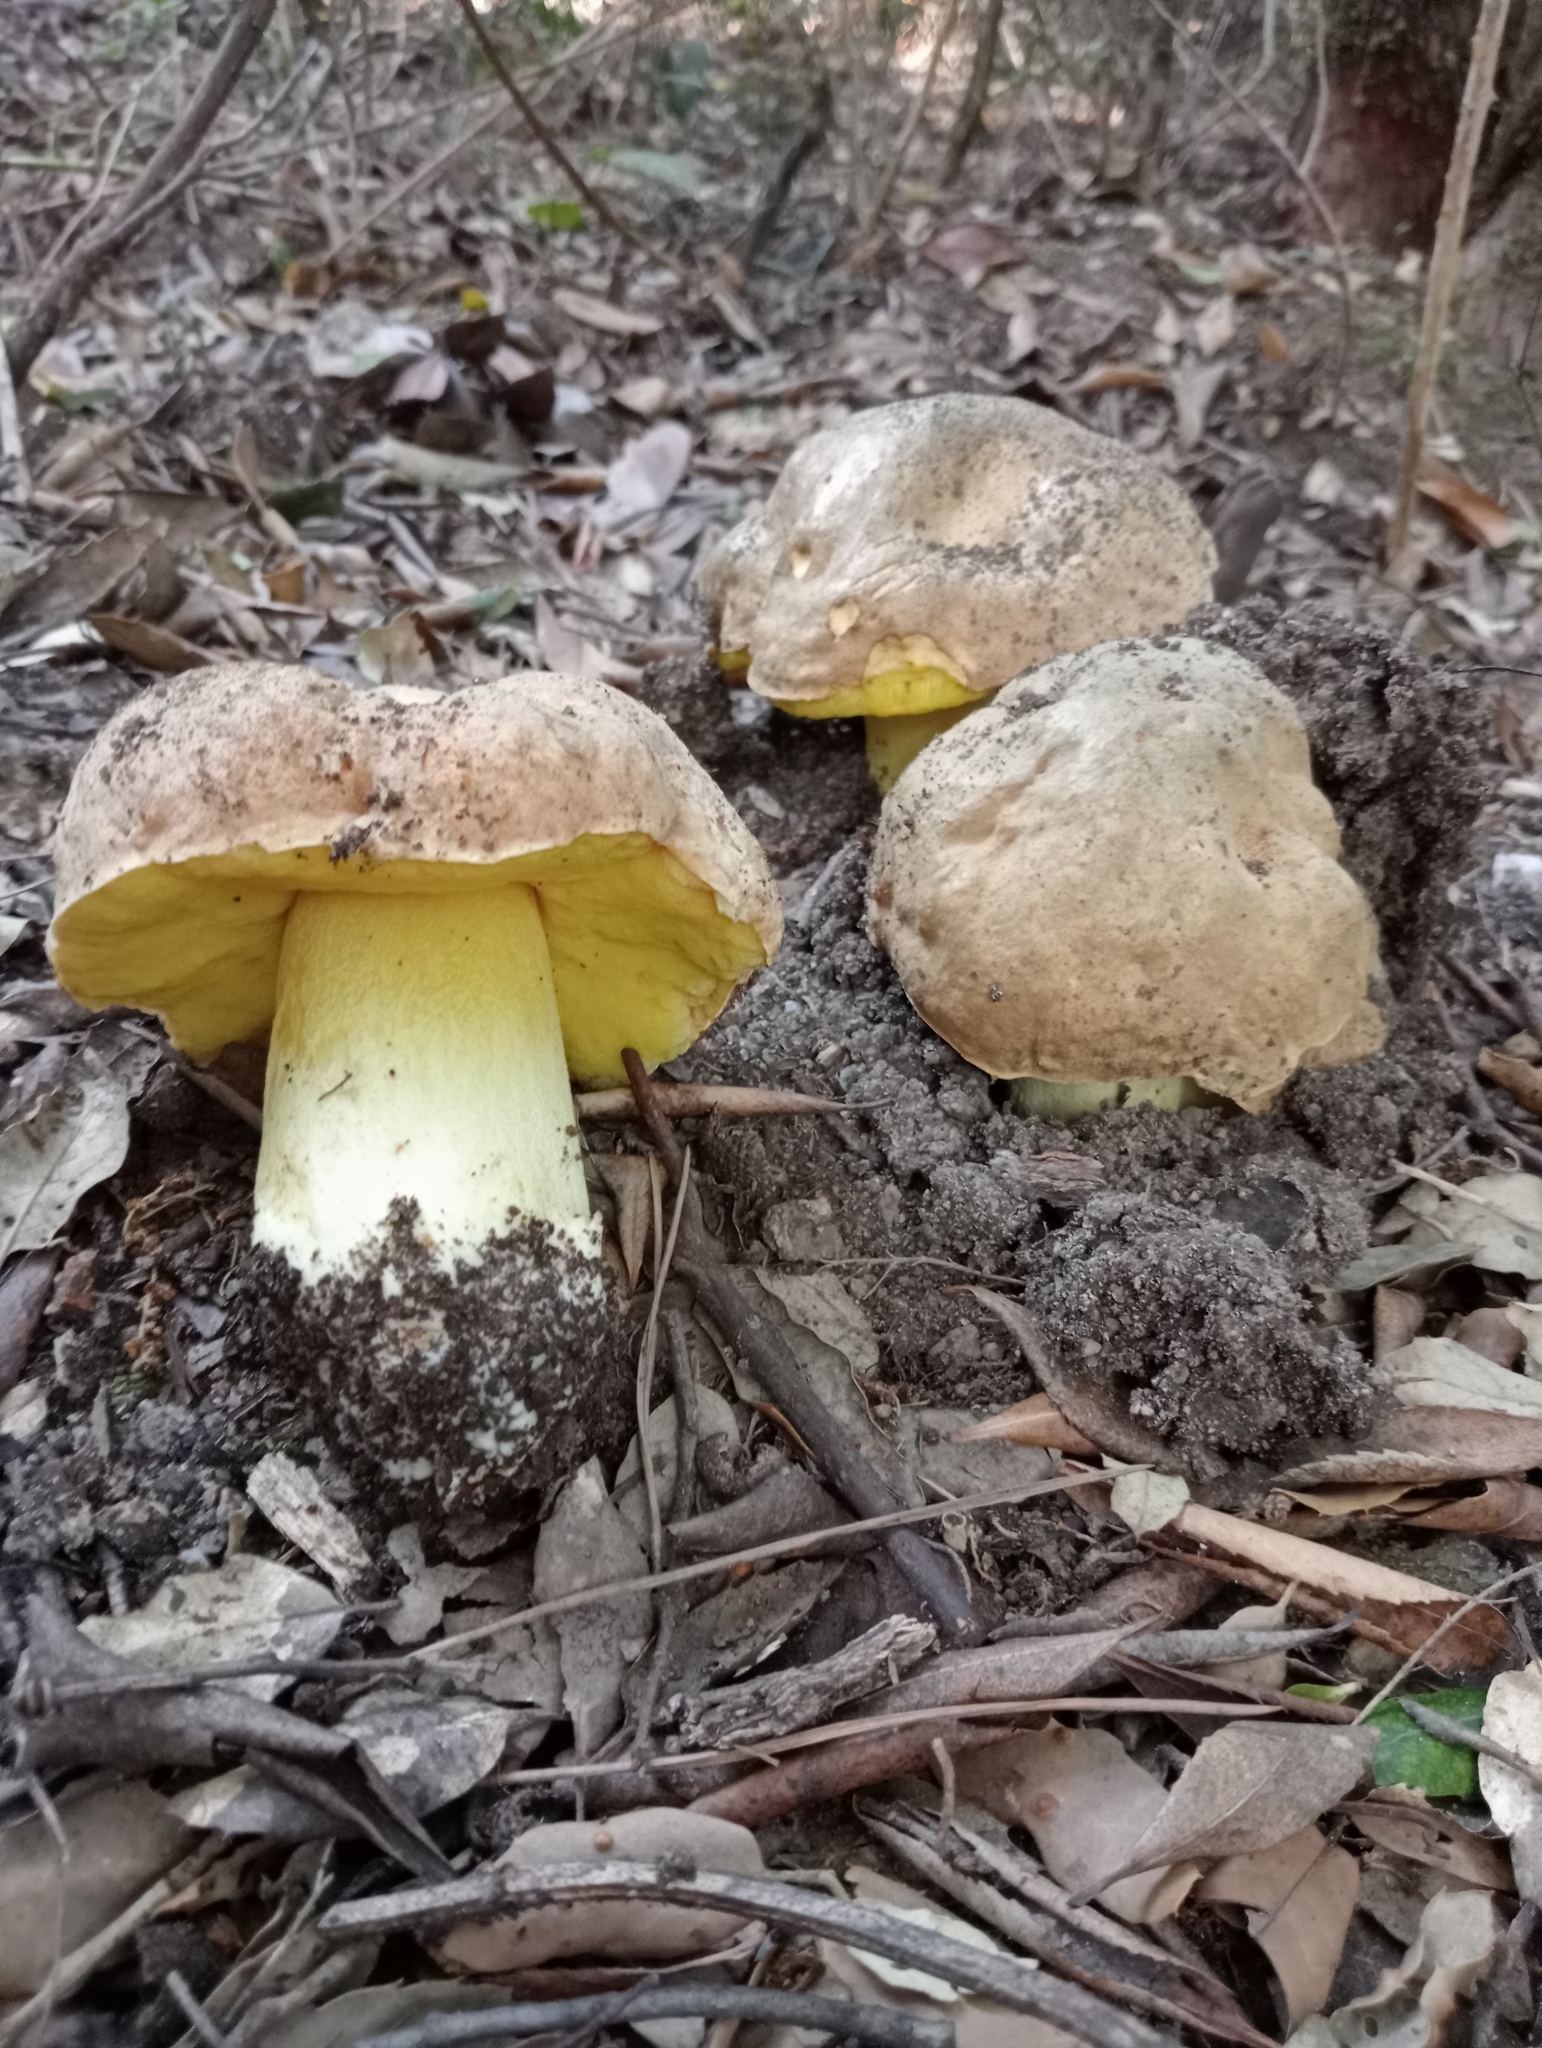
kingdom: Fungi
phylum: Basidiomycota
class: Agaricomycetes
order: Boletales
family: Boletaceae
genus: Hemileccinum
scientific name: Hemileccinum impolitum
